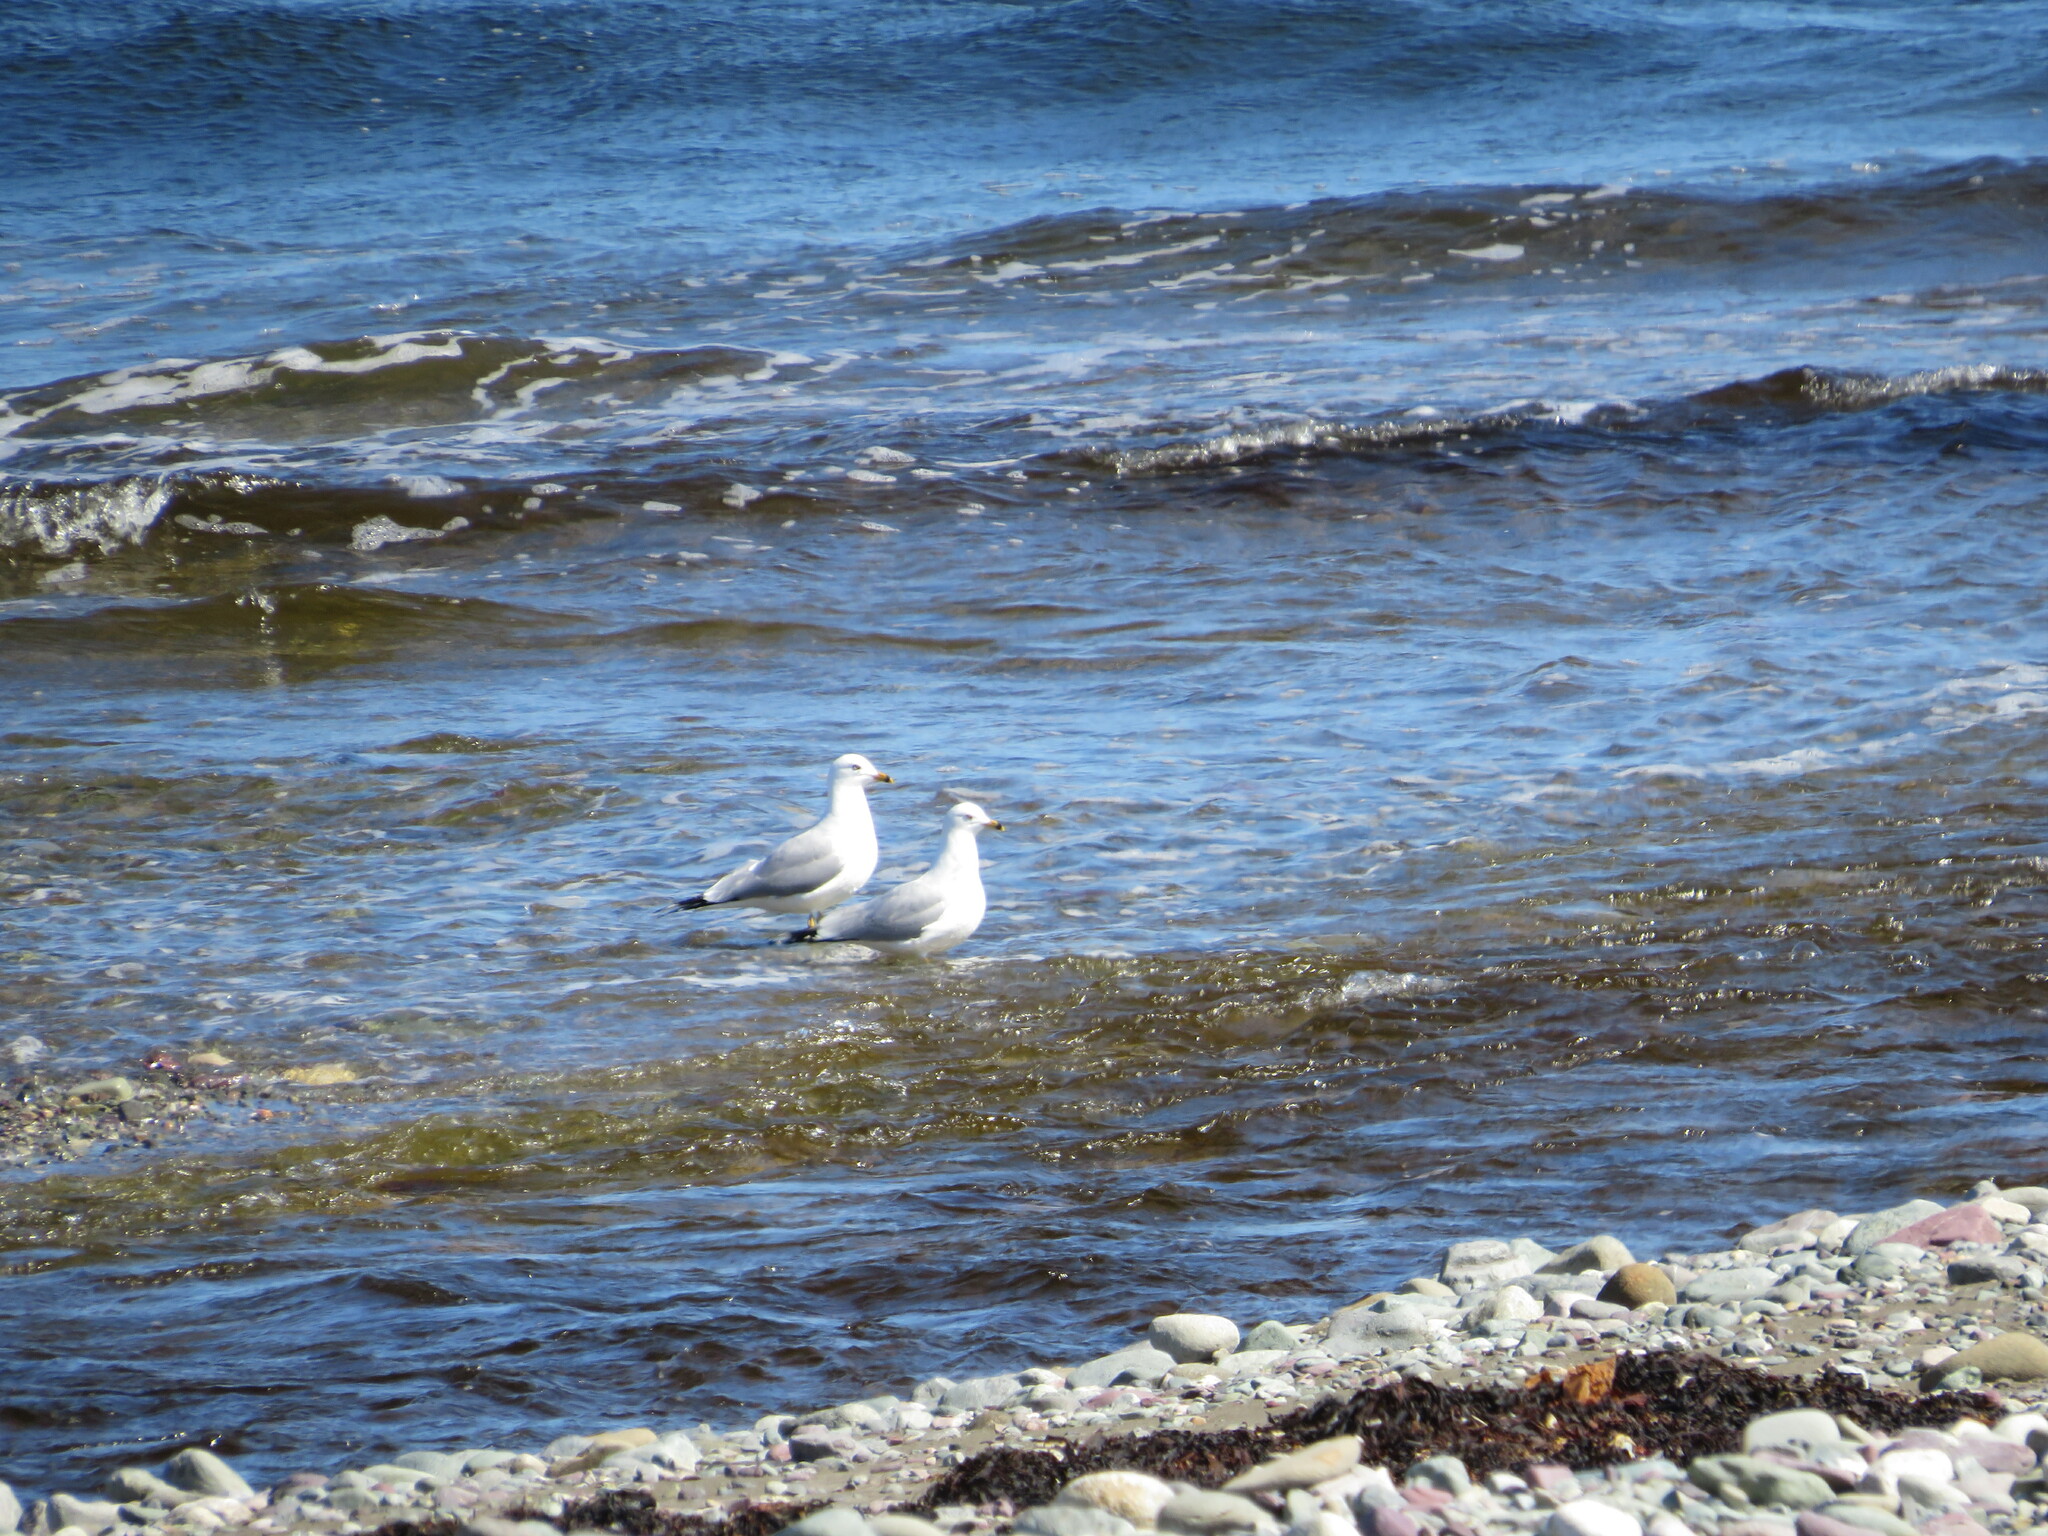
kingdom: Animalia
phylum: Chordata
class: Aves
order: Charadriiformes
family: Laridae
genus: Larus
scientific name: Larus delawarensis
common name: Ring-billed gull
